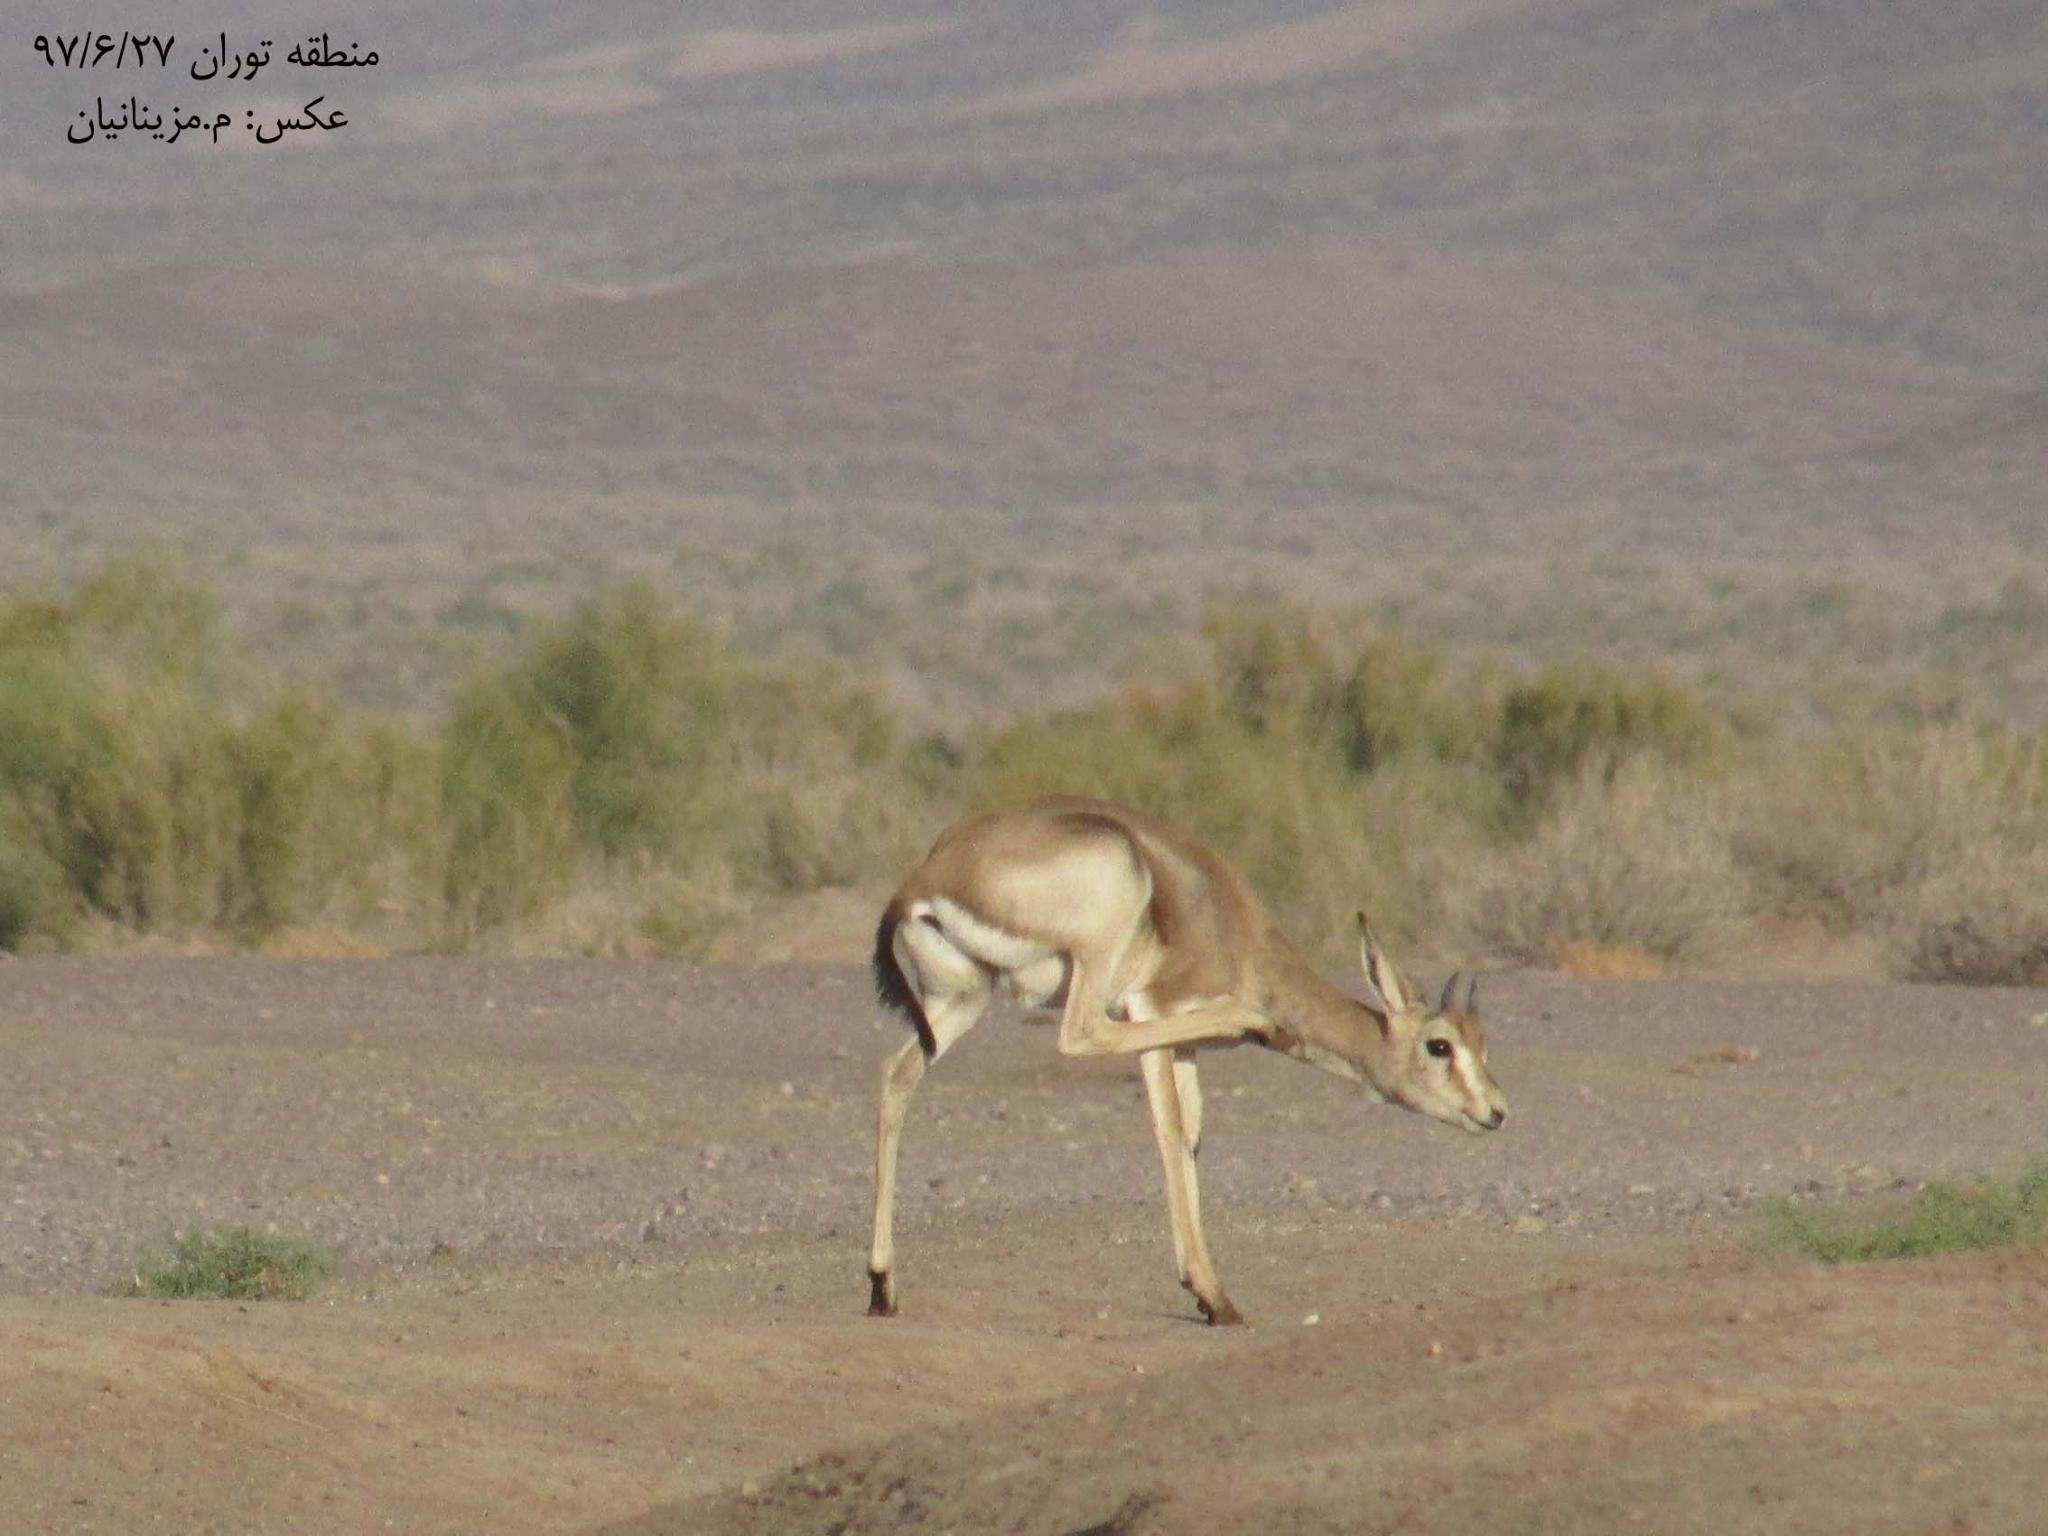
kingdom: Animalia
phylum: Chordata
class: Mammalia
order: Artiodactyla
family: Bovidae
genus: Gazella
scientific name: Gazella subgutturosa
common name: Goitered gazelle
